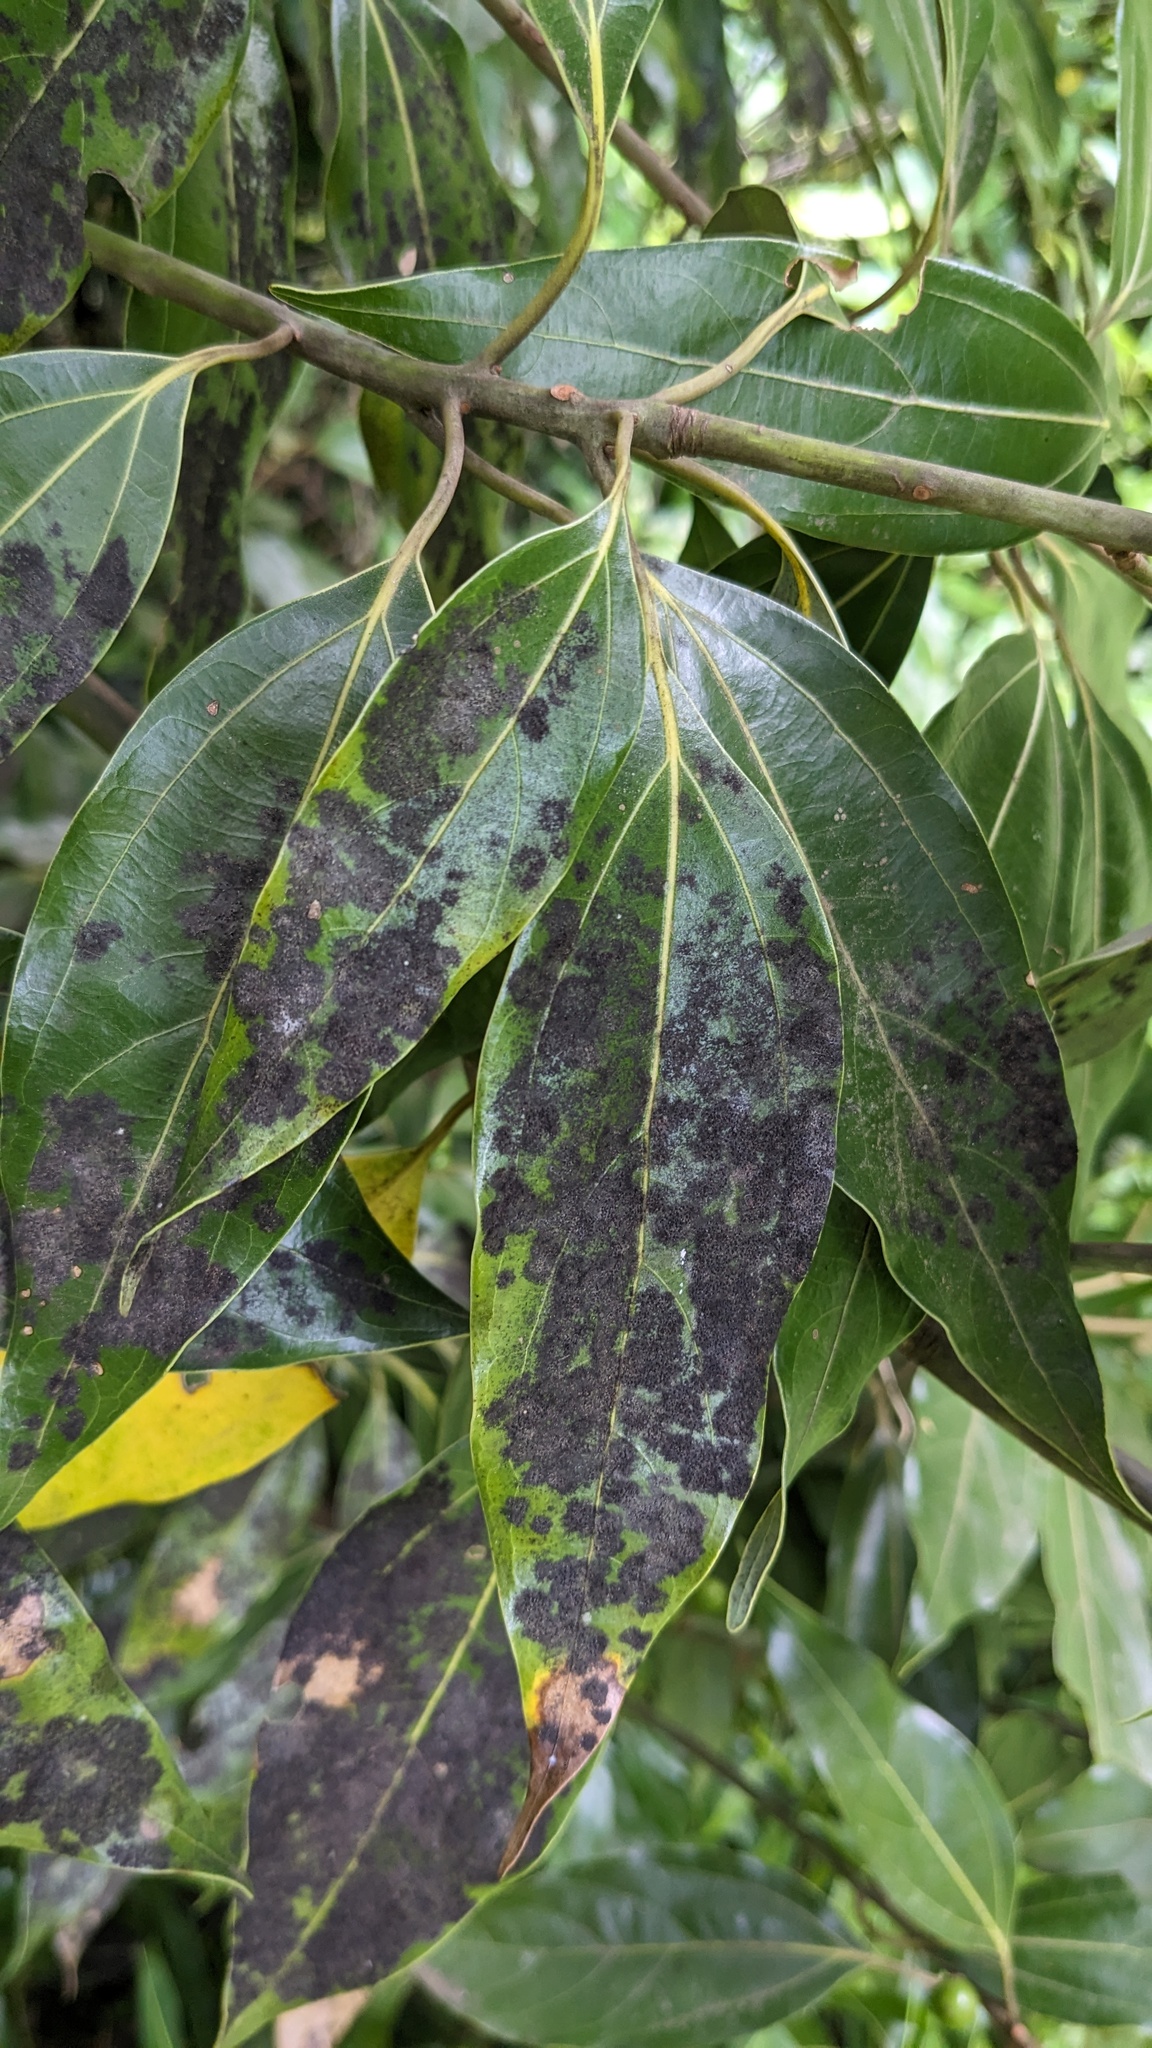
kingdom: Fungi
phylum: Ascomycota
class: Sordariomycetes
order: Meliolales
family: Armatellaceae
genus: Armatella
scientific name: Armatella litseae
